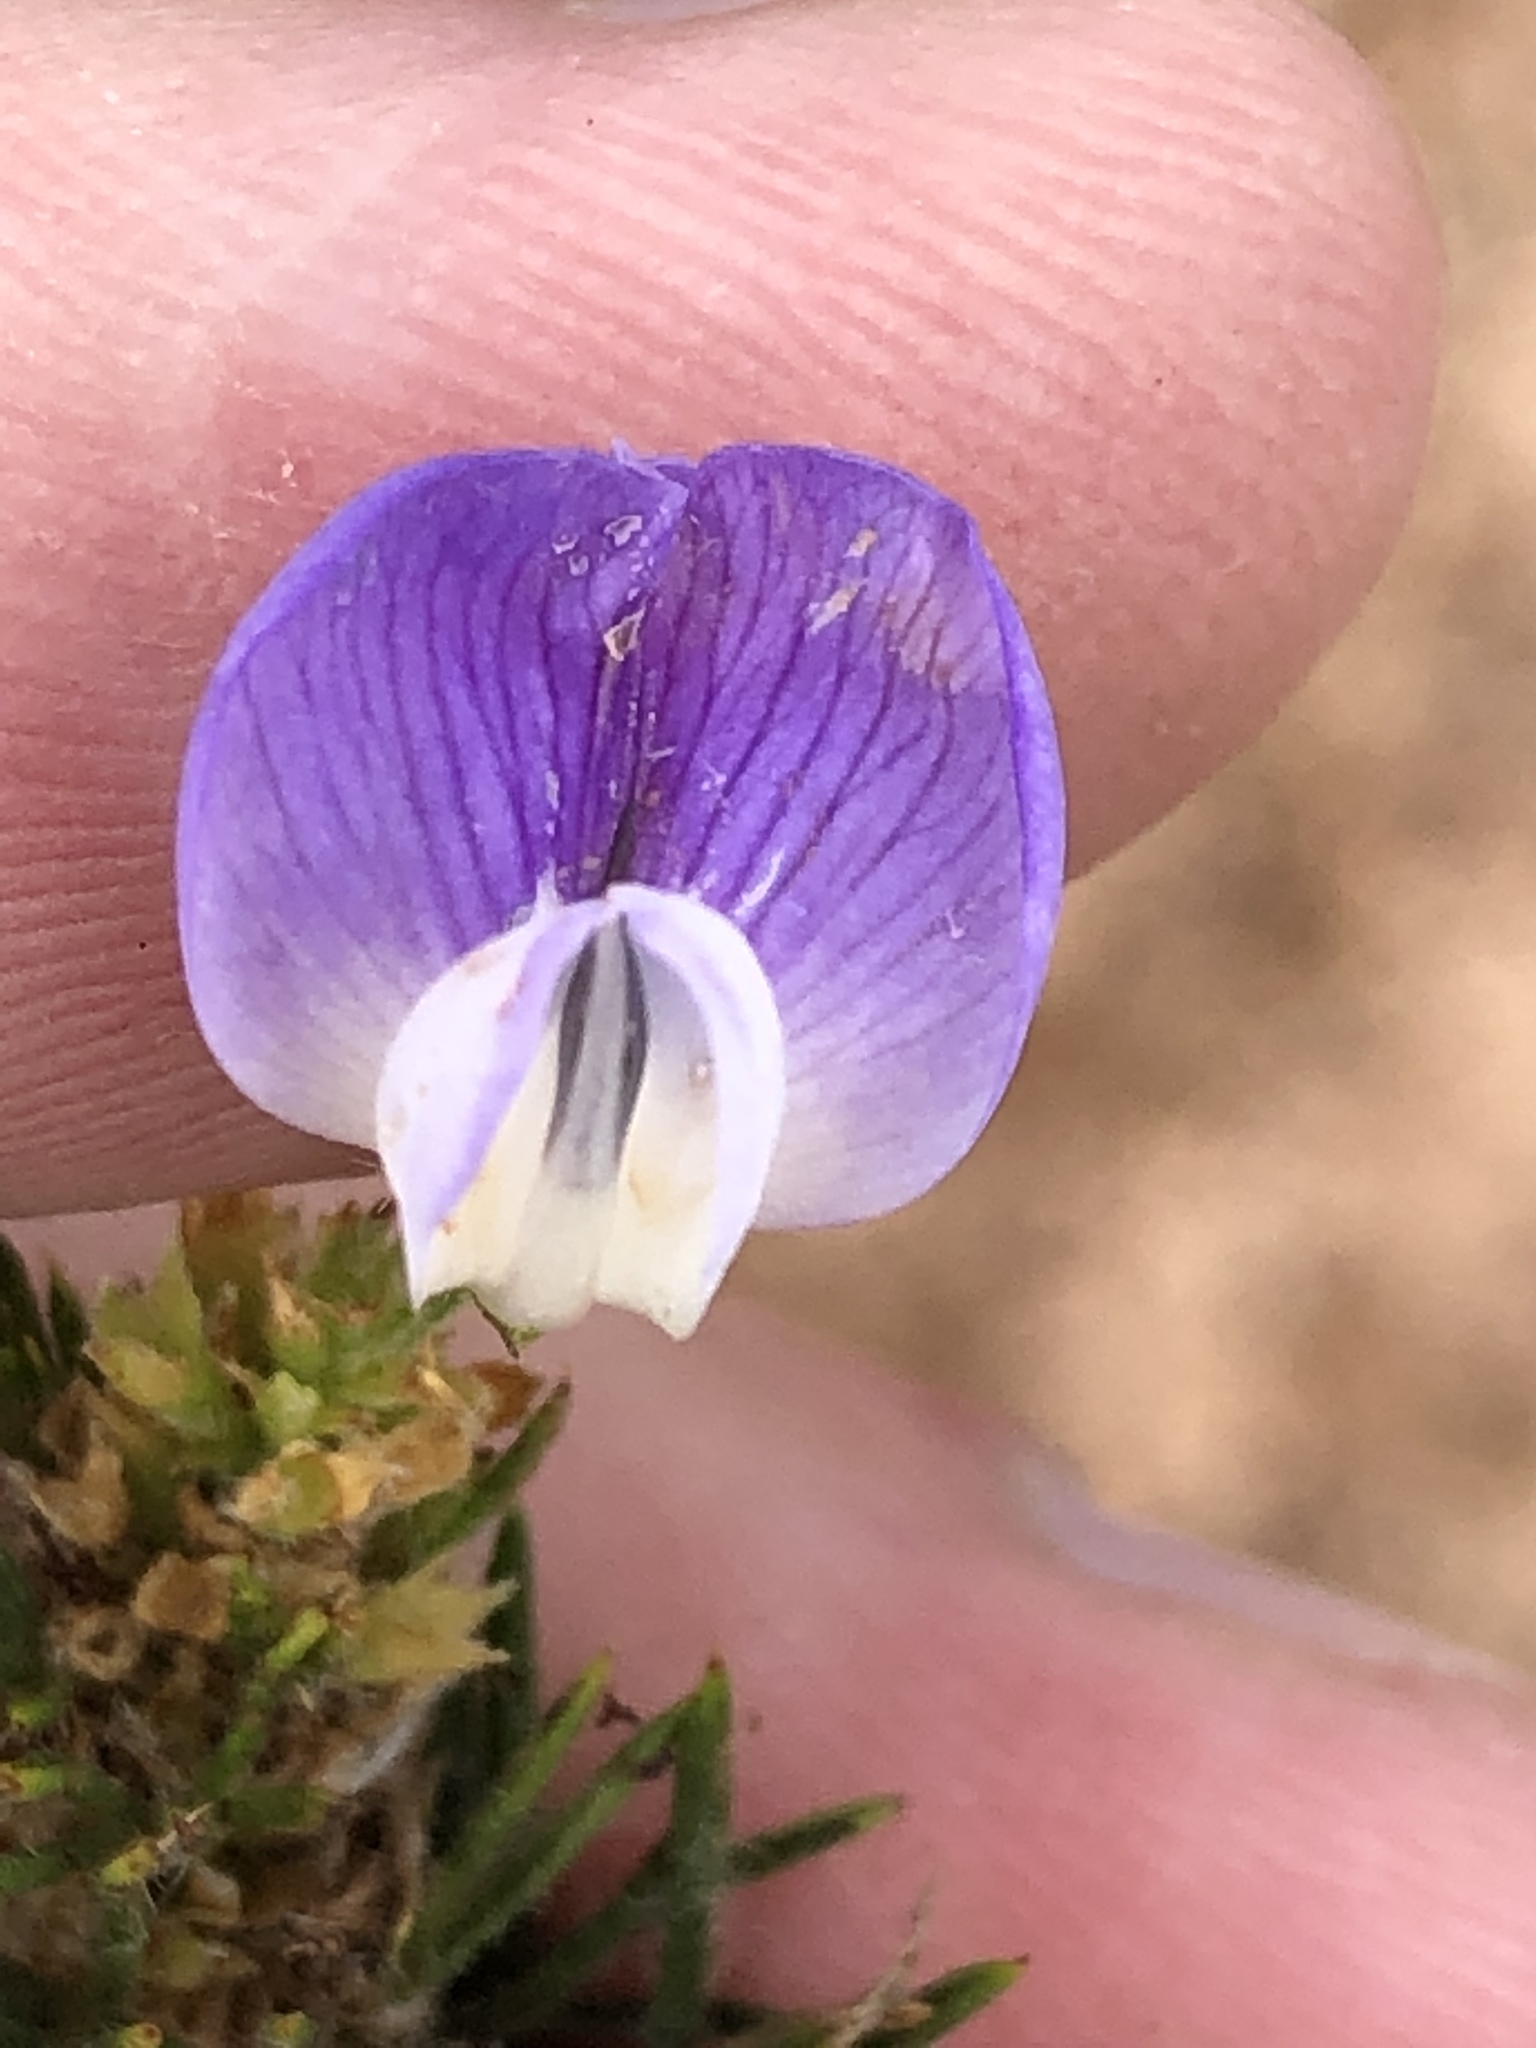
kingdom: Plantae
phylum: Tracheophyta
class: Magnoliopsida
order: Fabales
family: Fabaceae
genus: Psoralea
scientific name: Psoralea pinnata
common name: African scurfpea
